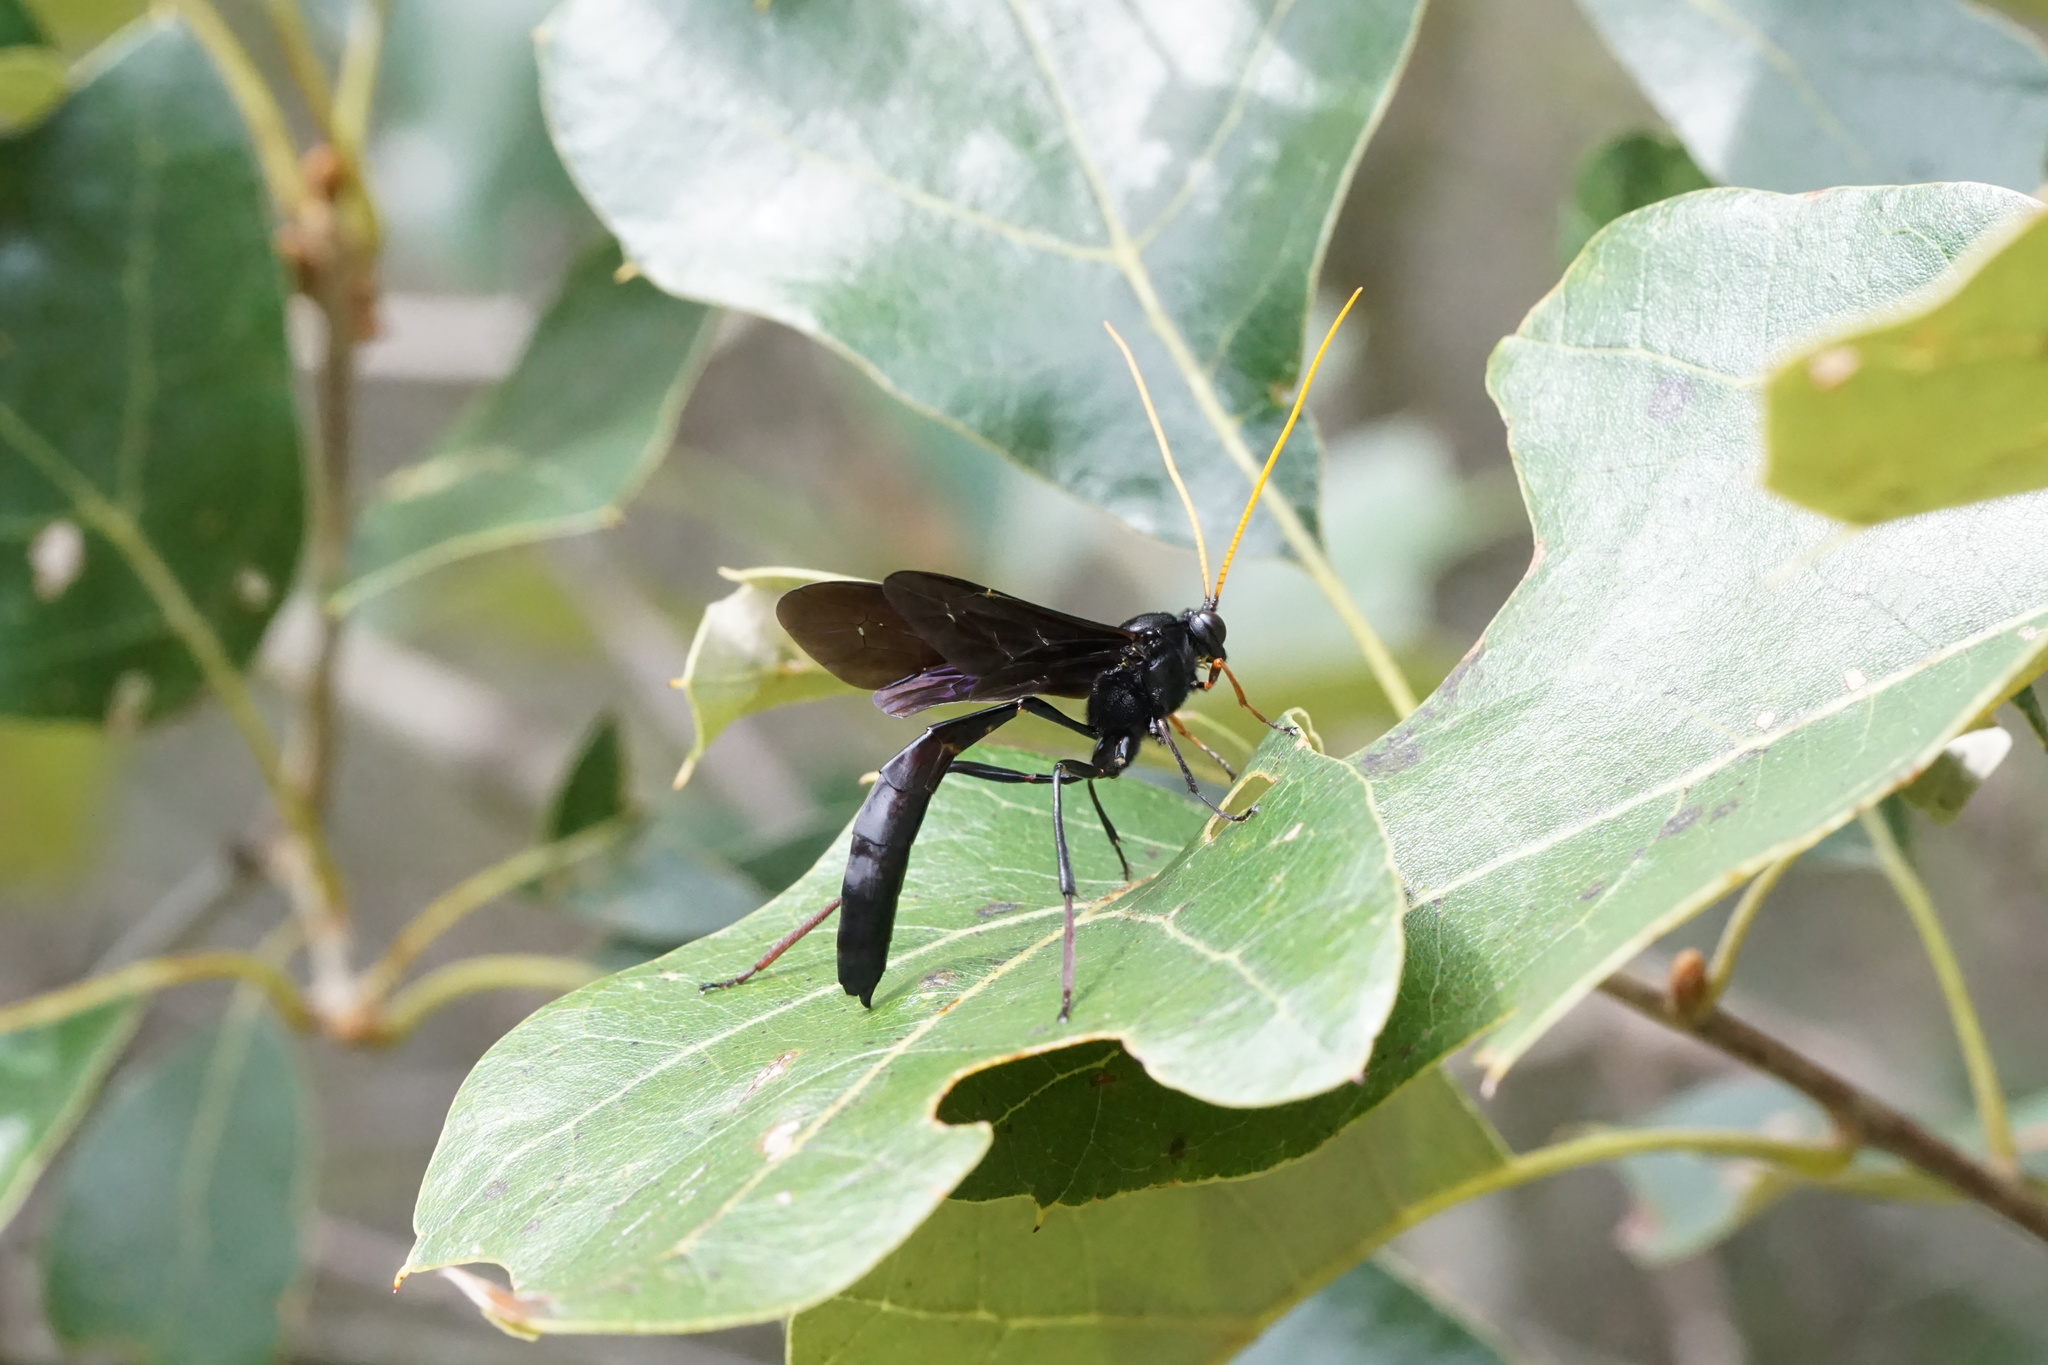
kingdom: Animalia
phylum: Arthropoda
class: Insecta
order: Hymenoptera
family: Ichneumonidae
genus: Heteropelma
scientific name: Heteropelma datanae
